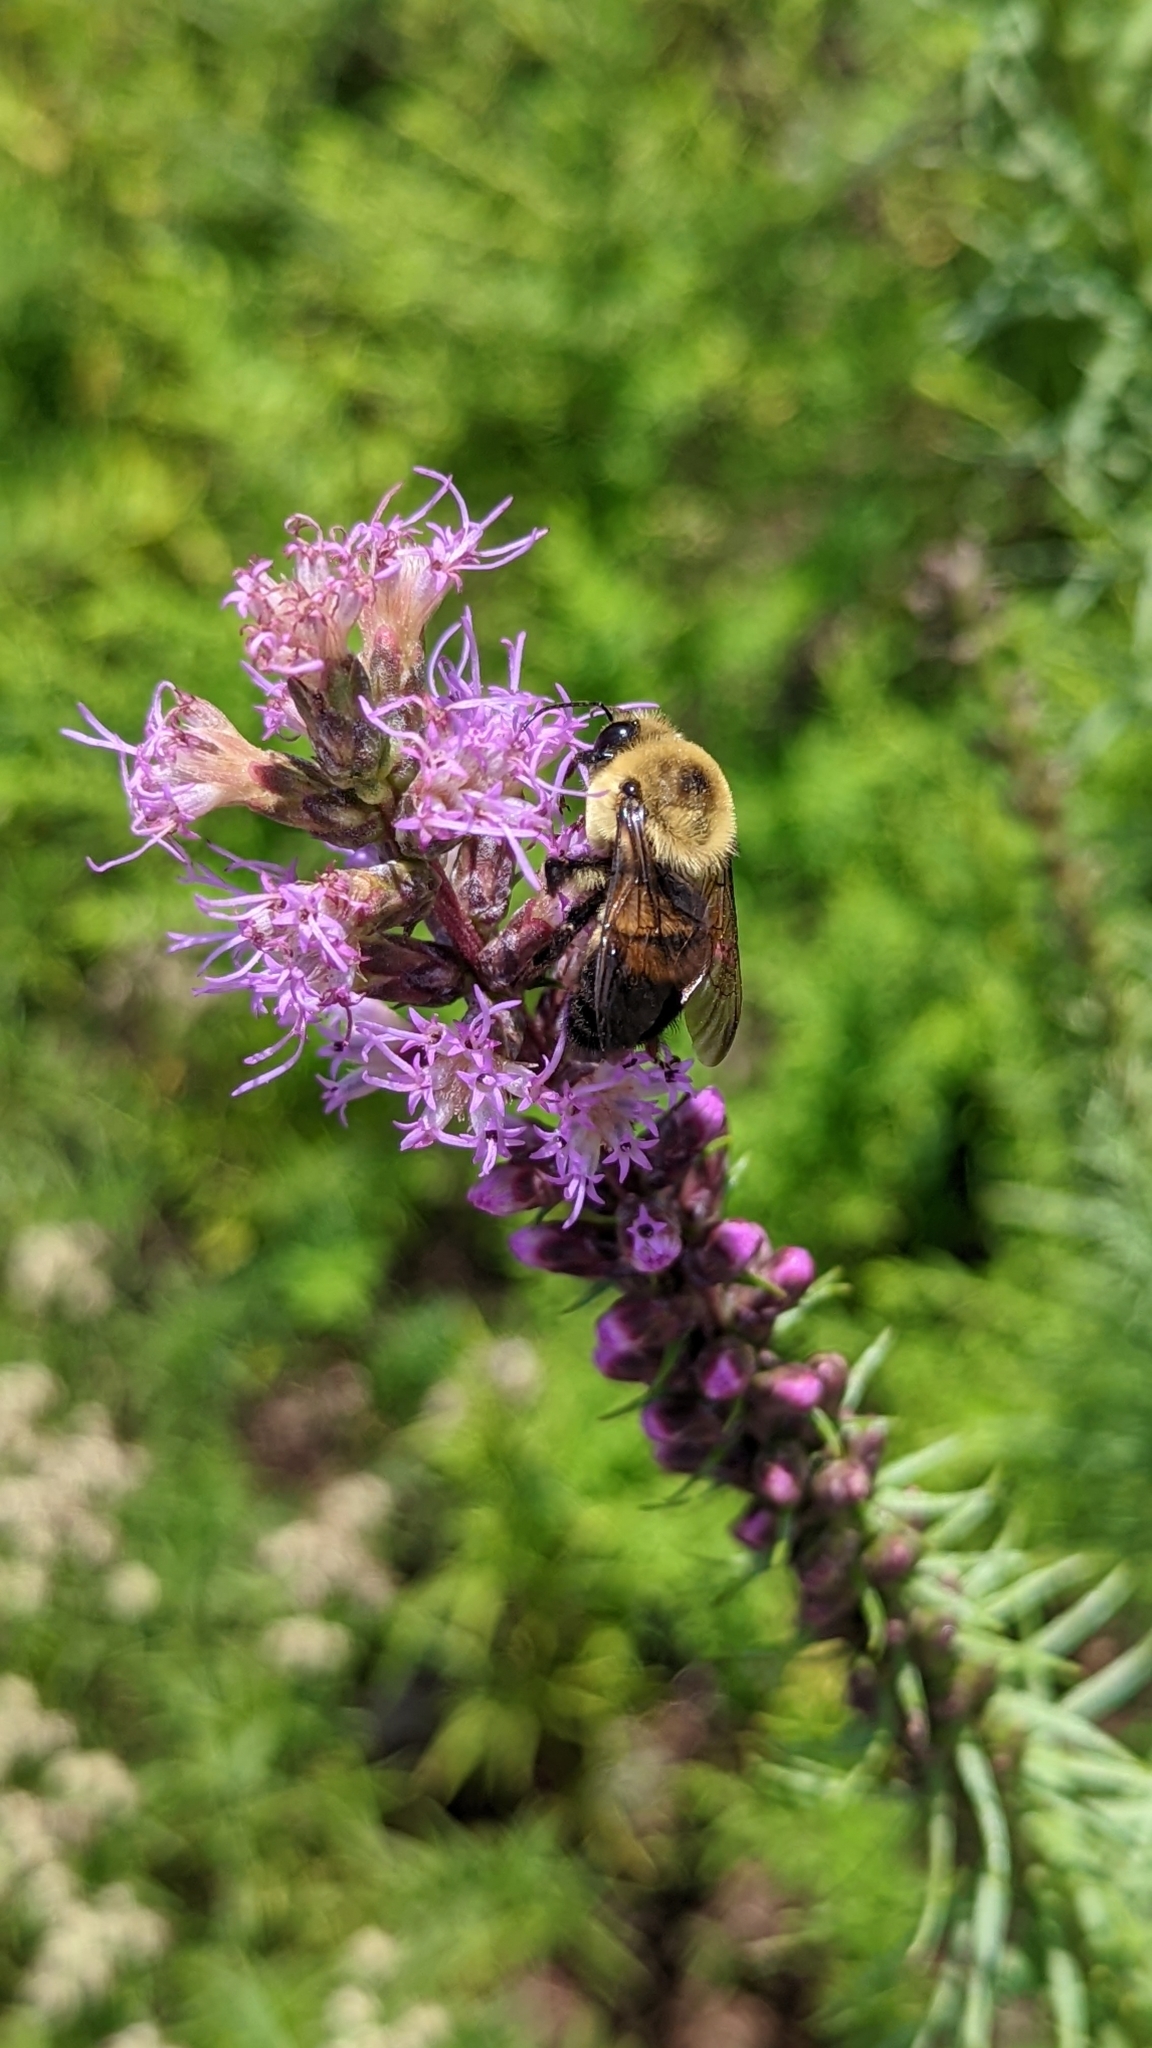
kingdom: Animalia
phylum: Arthropoda
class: Insecta
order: Hymenoptera
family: Apidae
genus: Bombus
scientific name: Bombus griseocollis
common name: Brown-belted bumble bee
